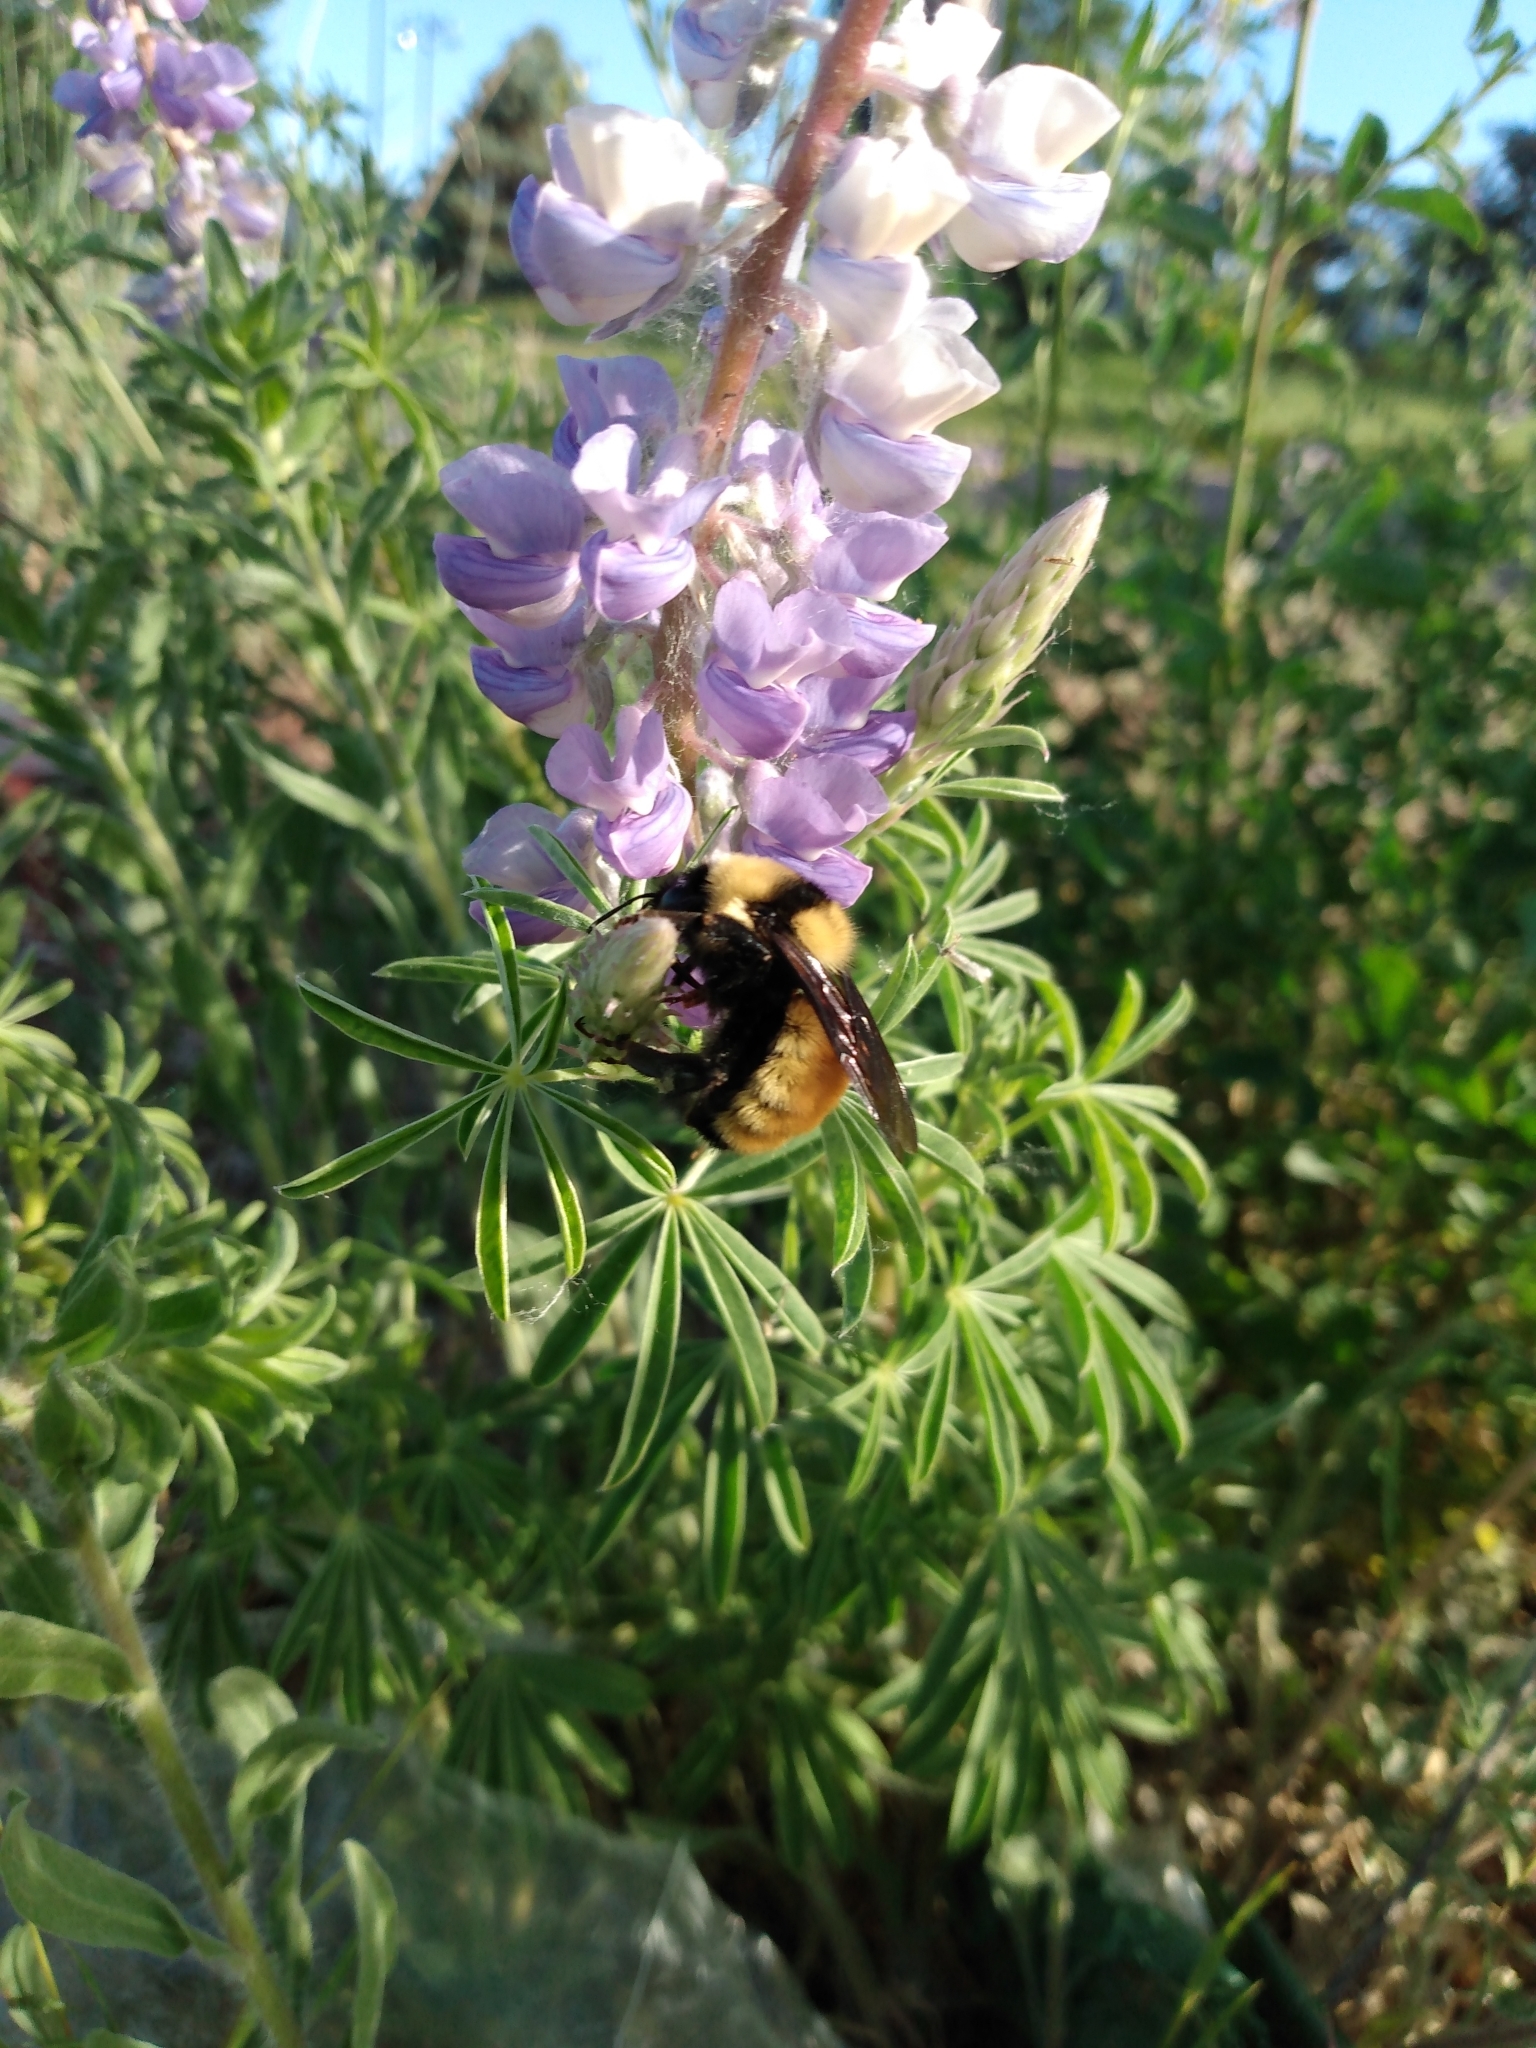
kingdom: Plantae
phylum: Tracheophyta
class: Magnoliopsida
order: Fabales
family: Fabaceae
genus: Lupinus
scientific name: Lupinus argenteus
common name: Silvery lupine
